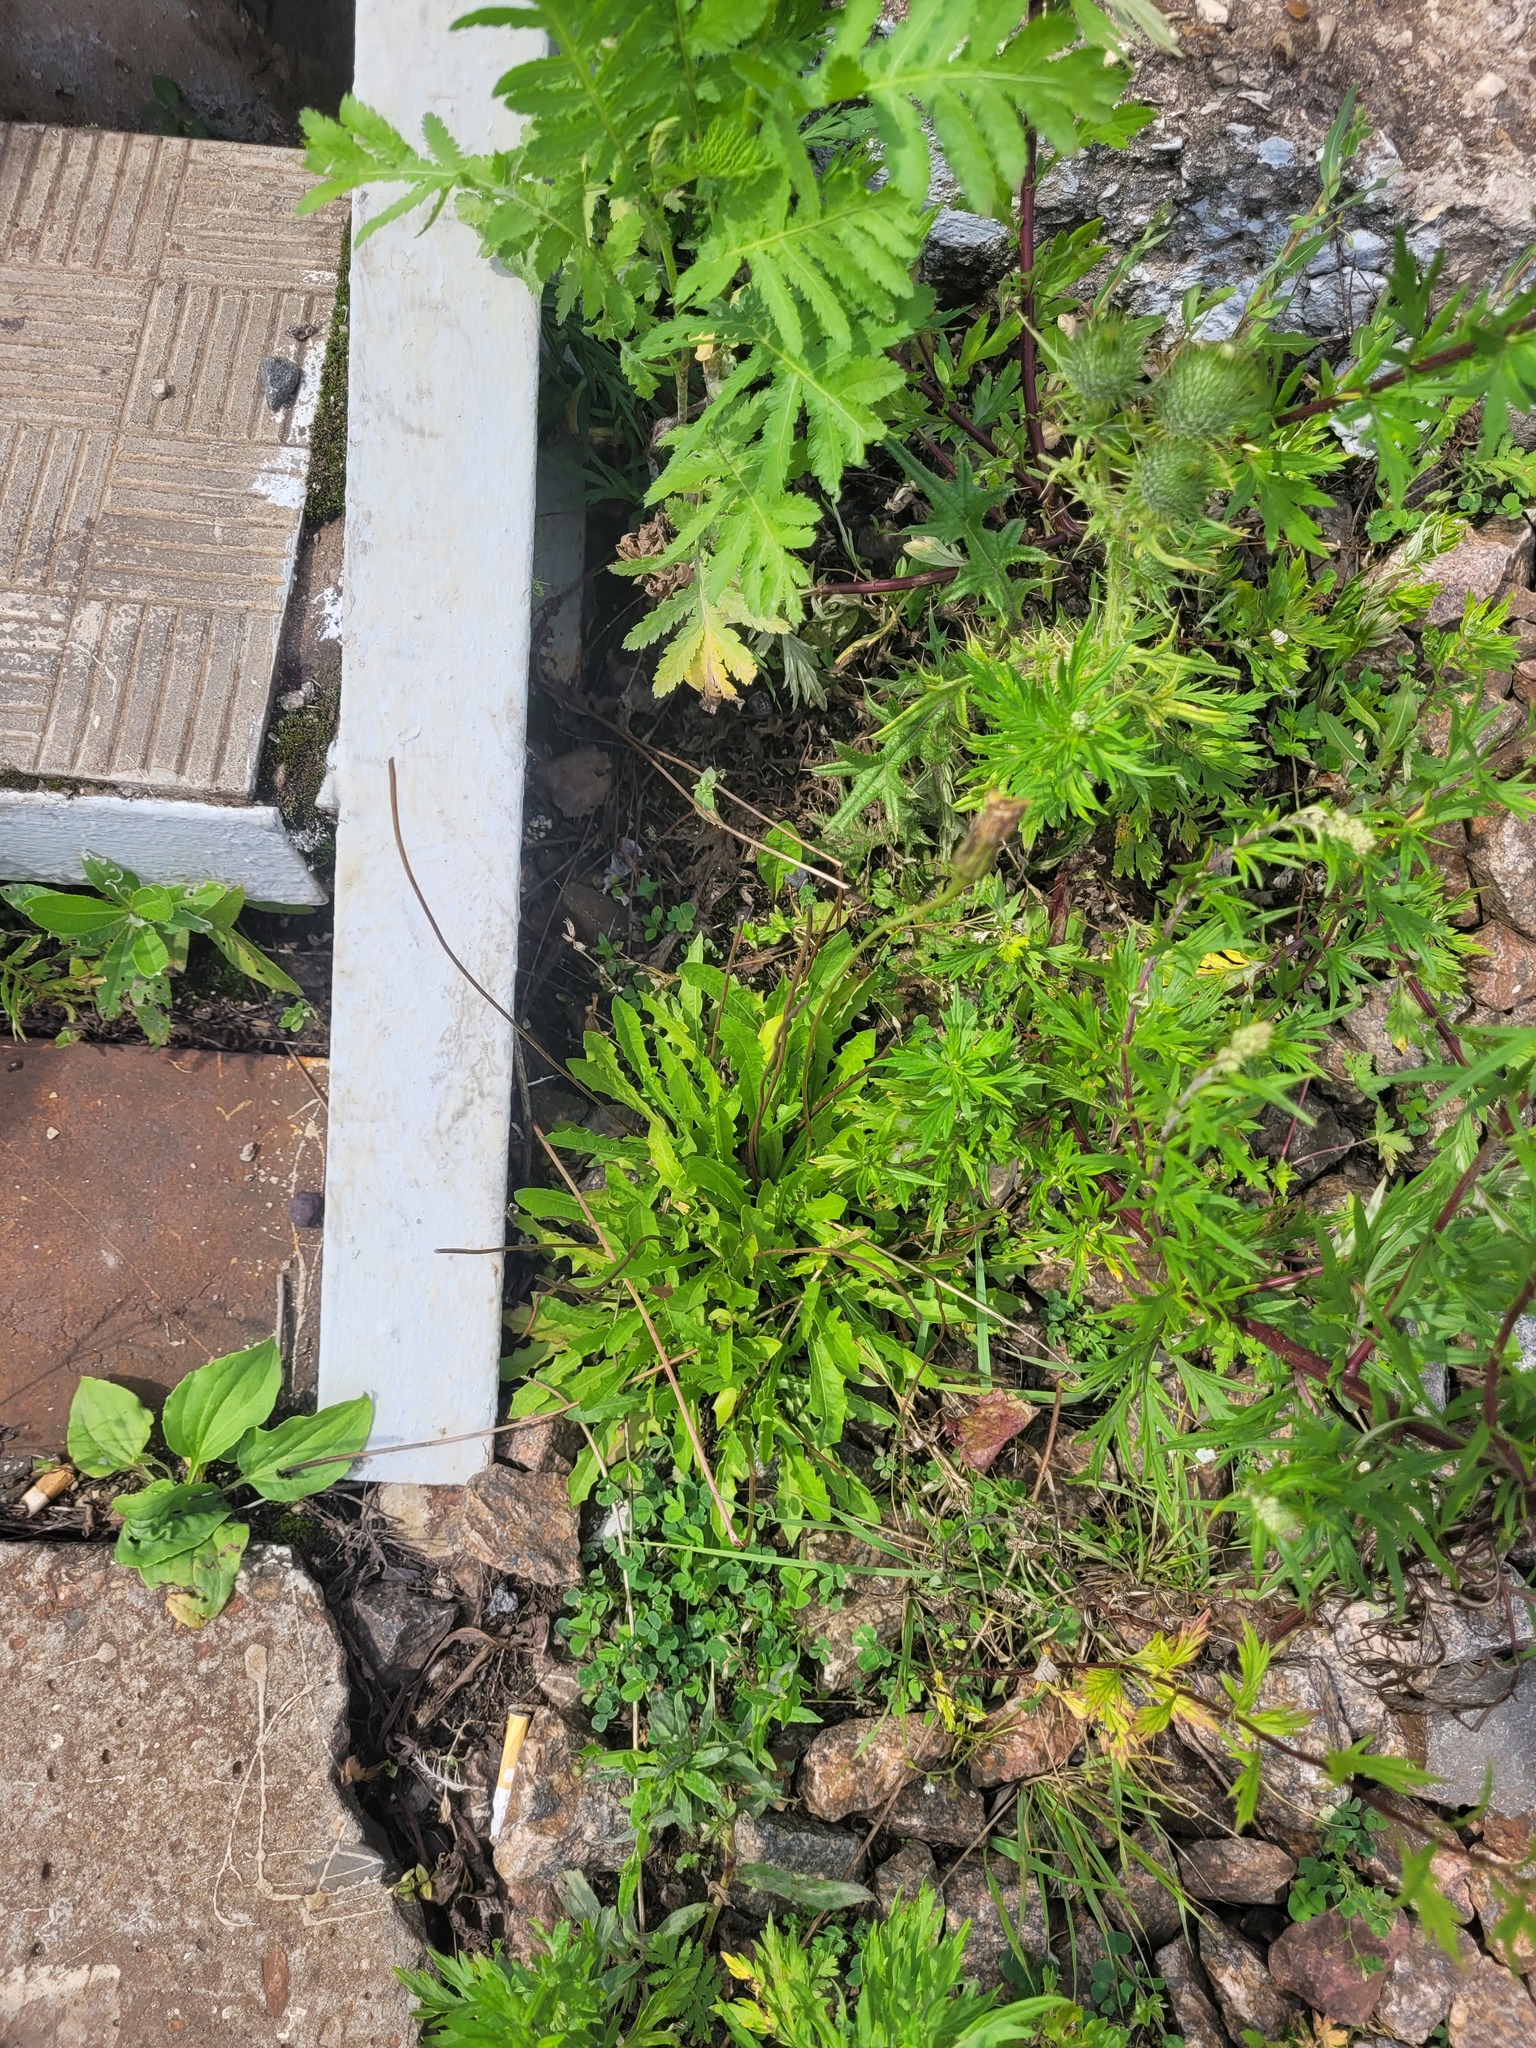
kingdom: Plantae
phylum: Tracheophyta
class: Magnoliopsida
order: Asterales
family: Asteraceae
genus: Leontodon
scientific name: Leontodon hispidus
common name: Rough hawkbit
